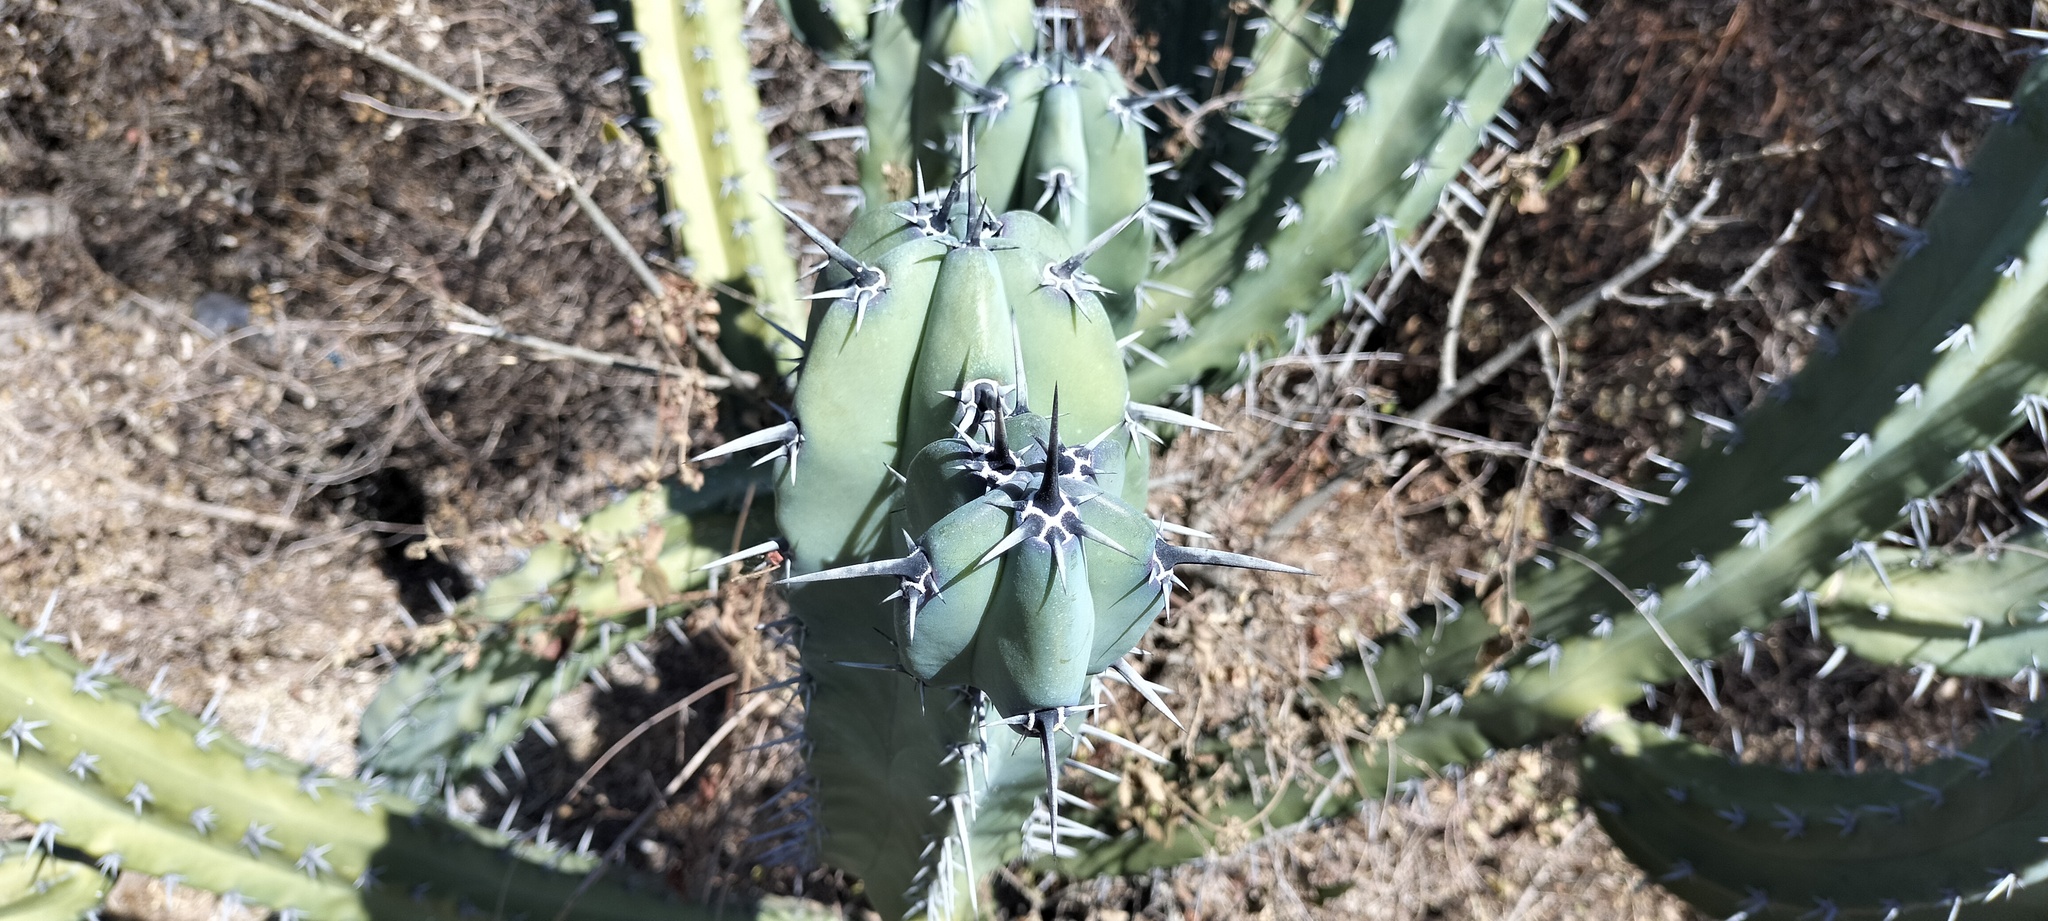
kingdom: Plantae
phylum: Tracheophyta
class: Magnoliopsida
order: Caryophyllales
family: Cactaceae
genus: Myrtillocactus
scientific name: Myrtillocactus geometrizans
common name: Bilberry cactus
